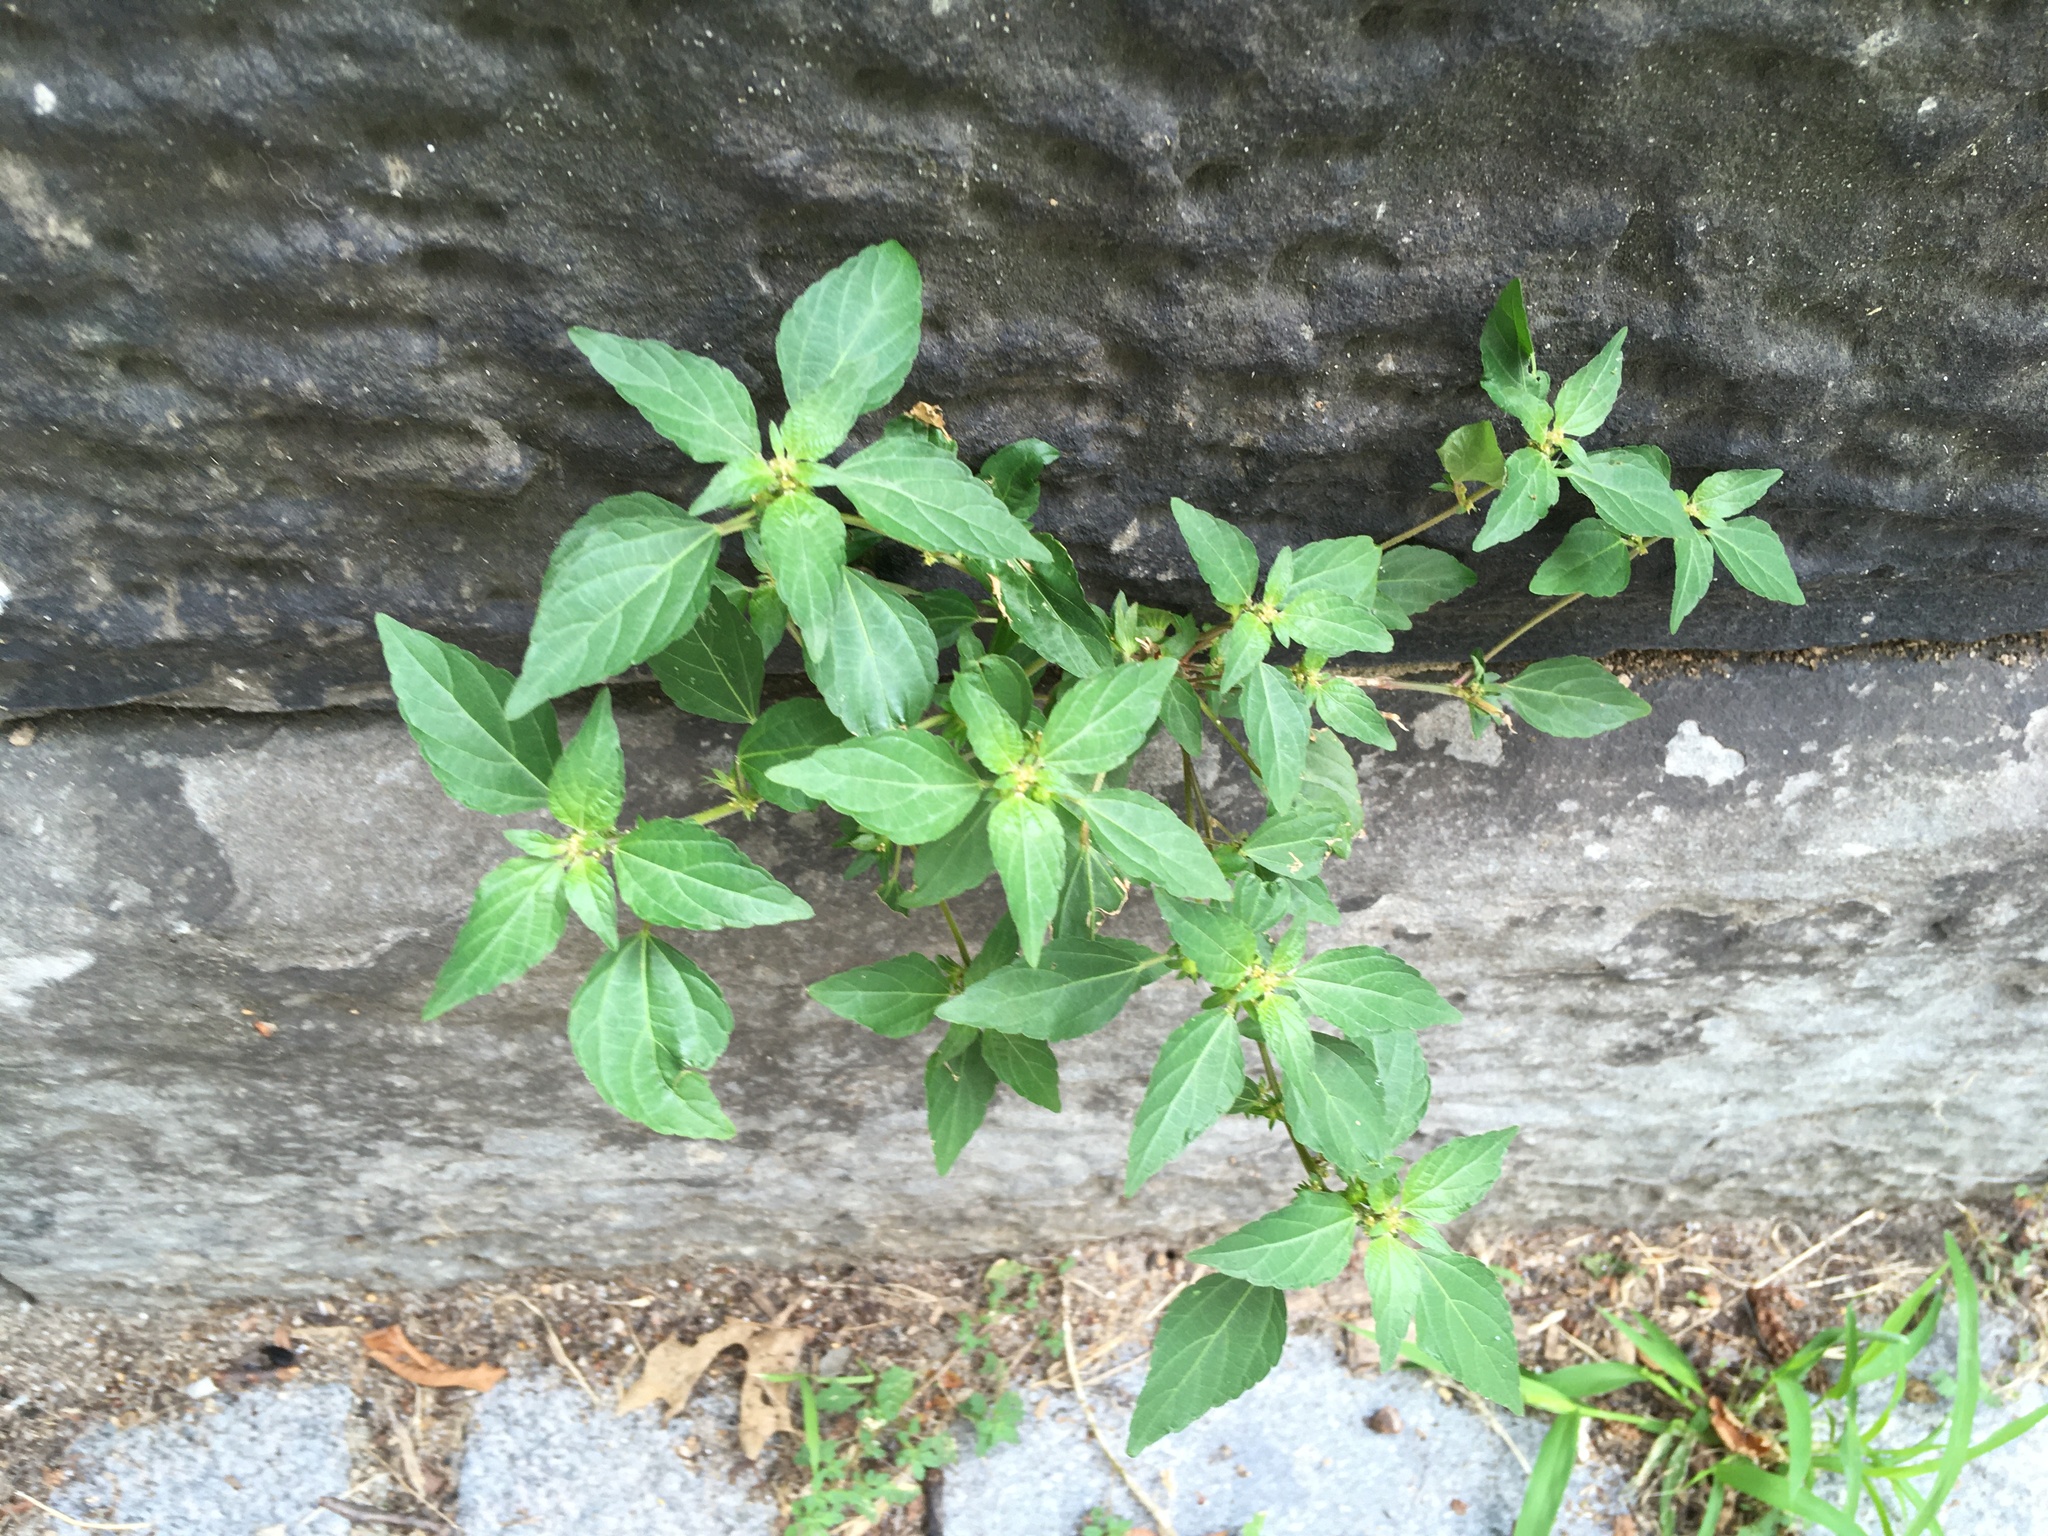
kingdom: Plantae
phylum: Tracheophyta
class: Magnoliopsida
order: Malpighiales
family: Euphorbiaceae
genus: Acalypha
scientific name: Acalypha rhomboidea
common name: Rhombic copperleaf
